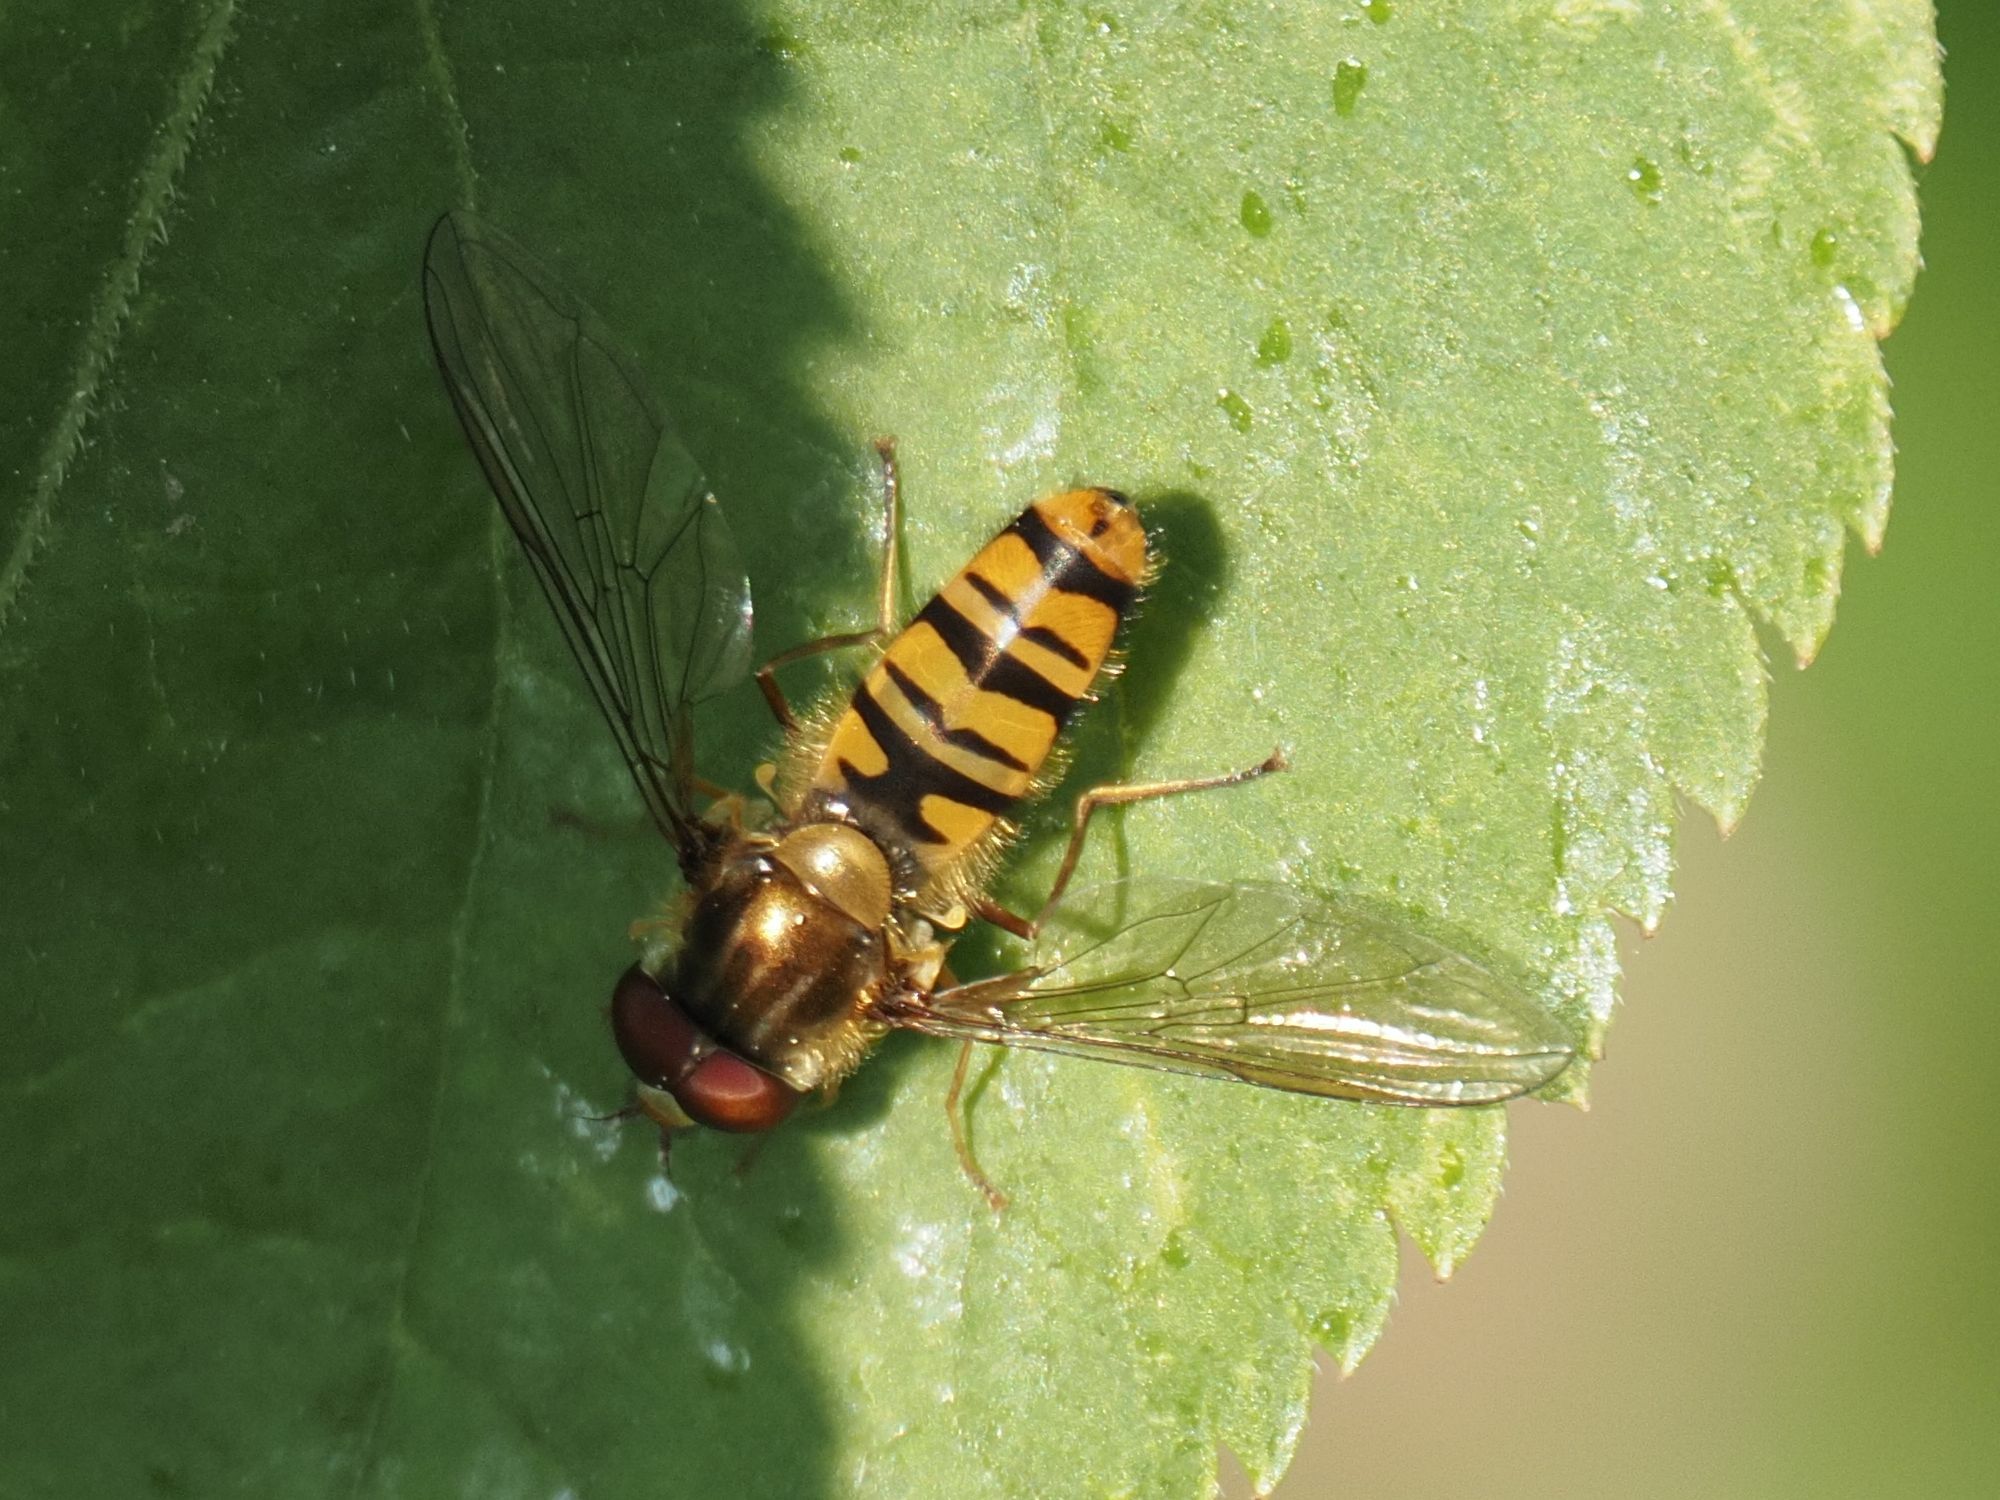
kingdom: Animalia
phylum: Arthropoda
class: Insecta
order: Diptera
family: Syrphidae
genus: Episyrphus
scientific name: Episyrphus balteatus
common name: Marmalade hoverfly
